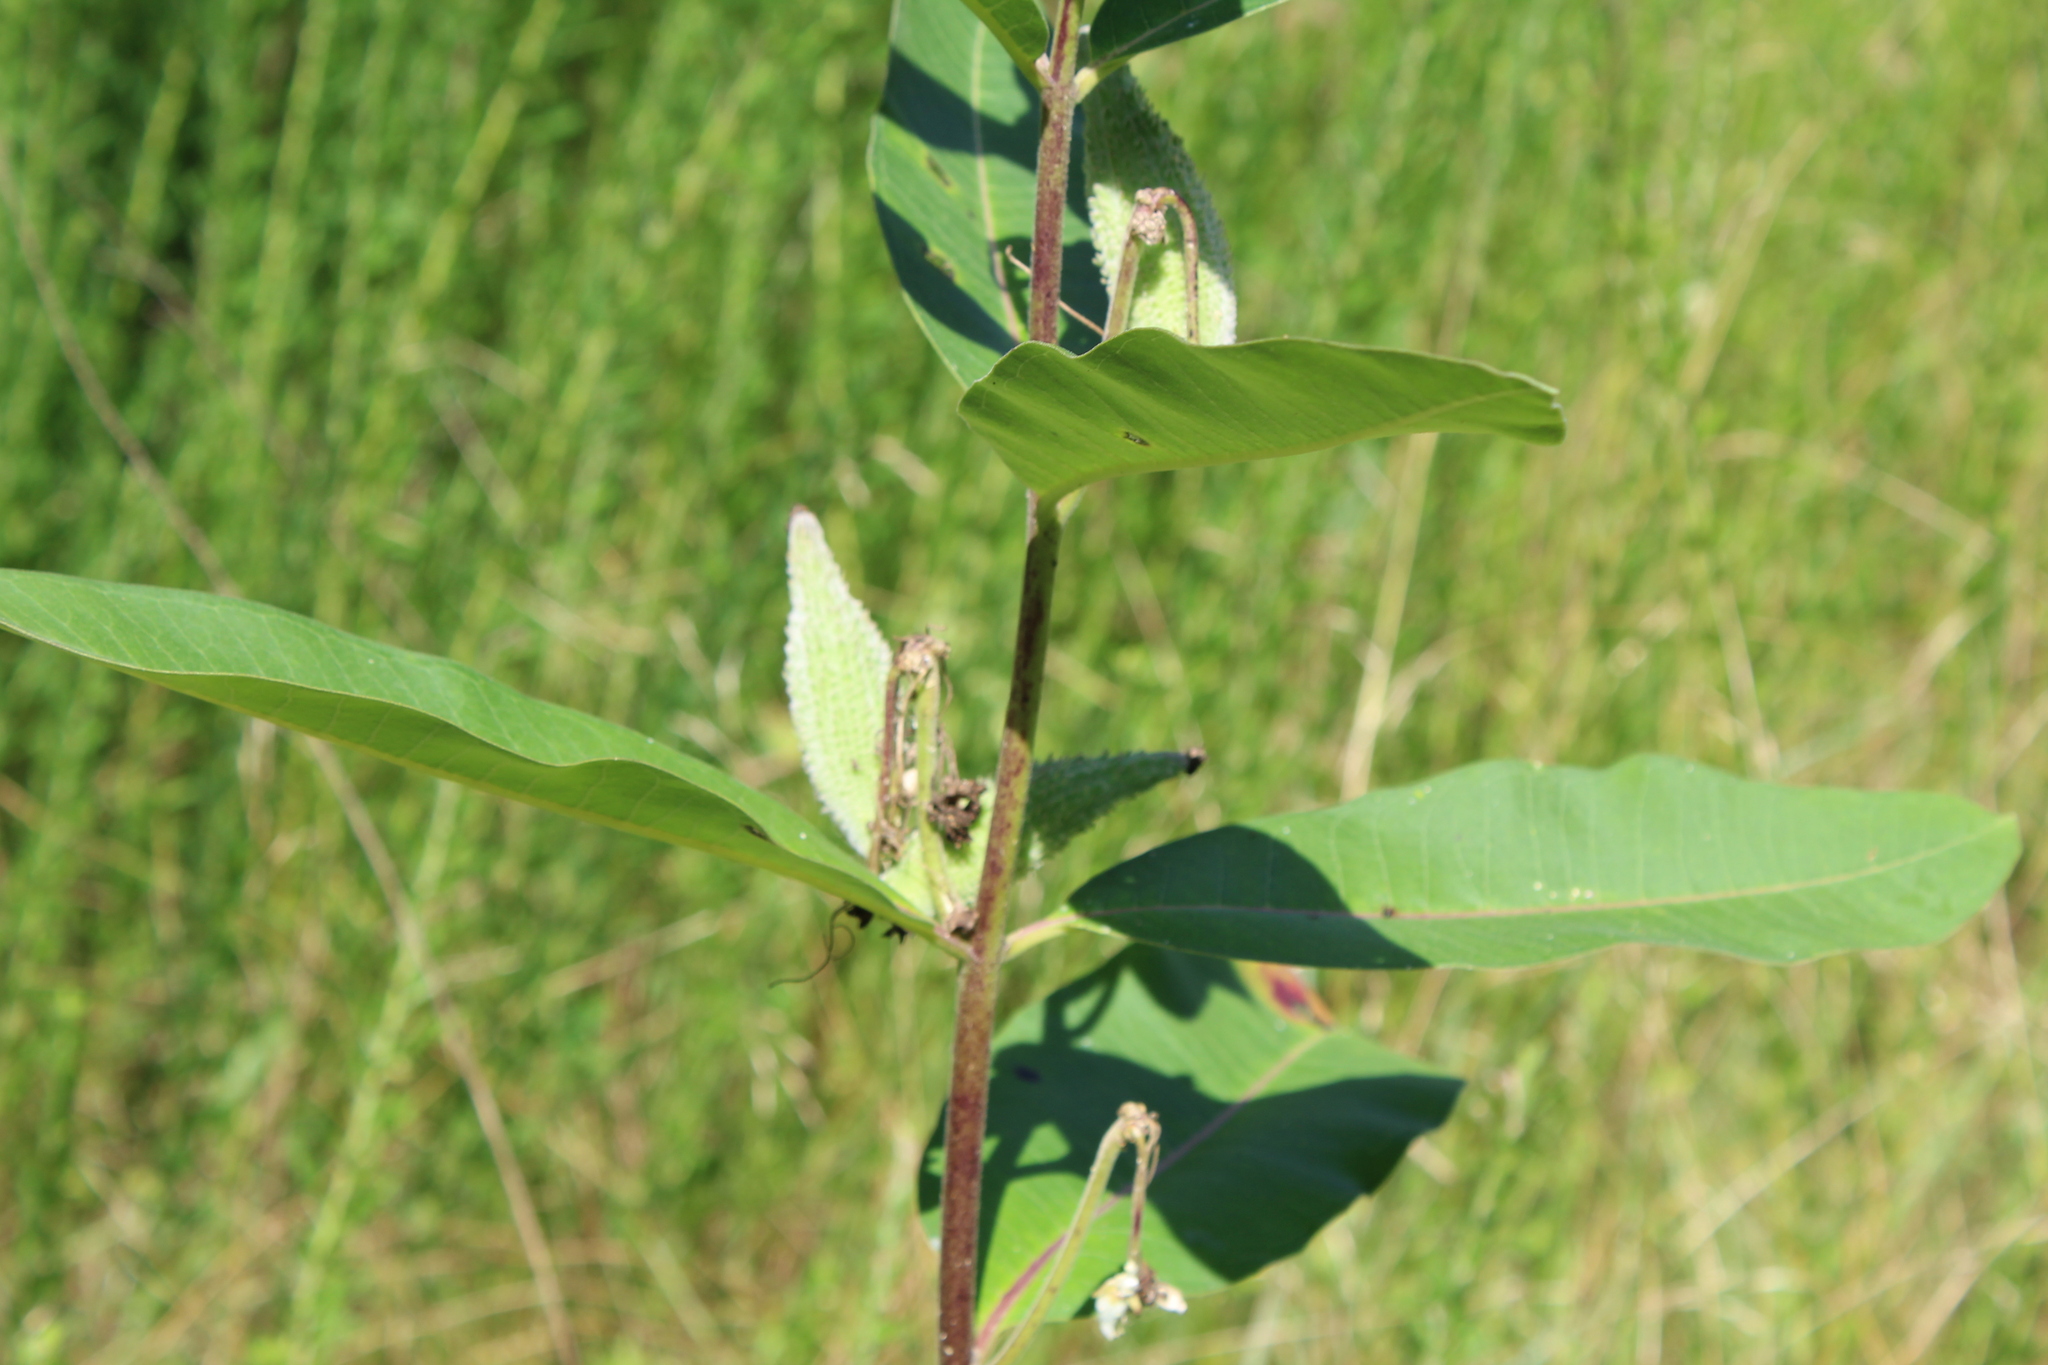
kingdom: Plantae
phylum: Tracheophyta
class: Magnoliopsida
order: Gentianales
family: Apocynaceae
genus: Asclepias
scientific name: Asclepias syriaca
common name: Common milkweed
